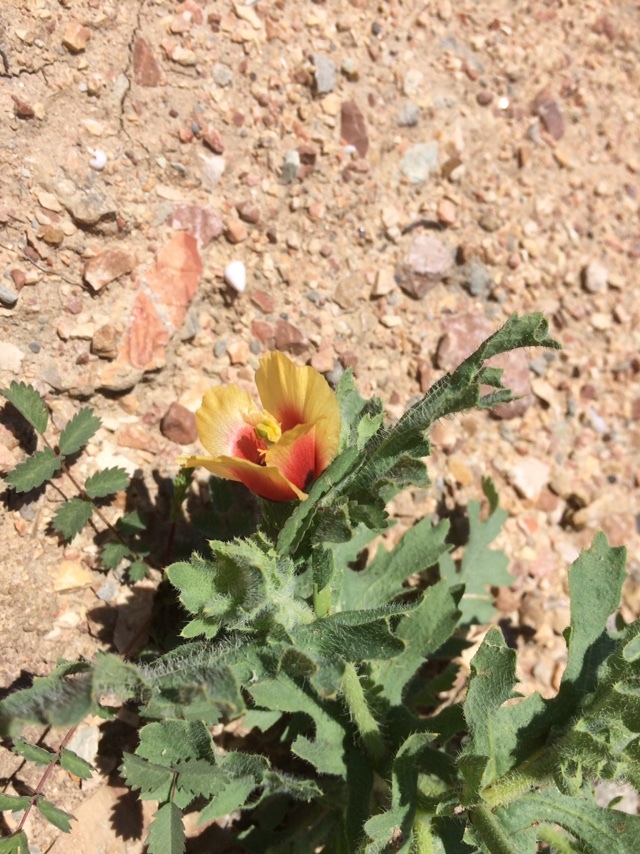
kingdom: Plantae
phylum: Tracheophyta
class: Magnoliopsida
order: Ranunculales
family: Papaveraceae
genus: Glaucium
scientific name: Glaucium corniculatum
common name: Red horned-poppy
